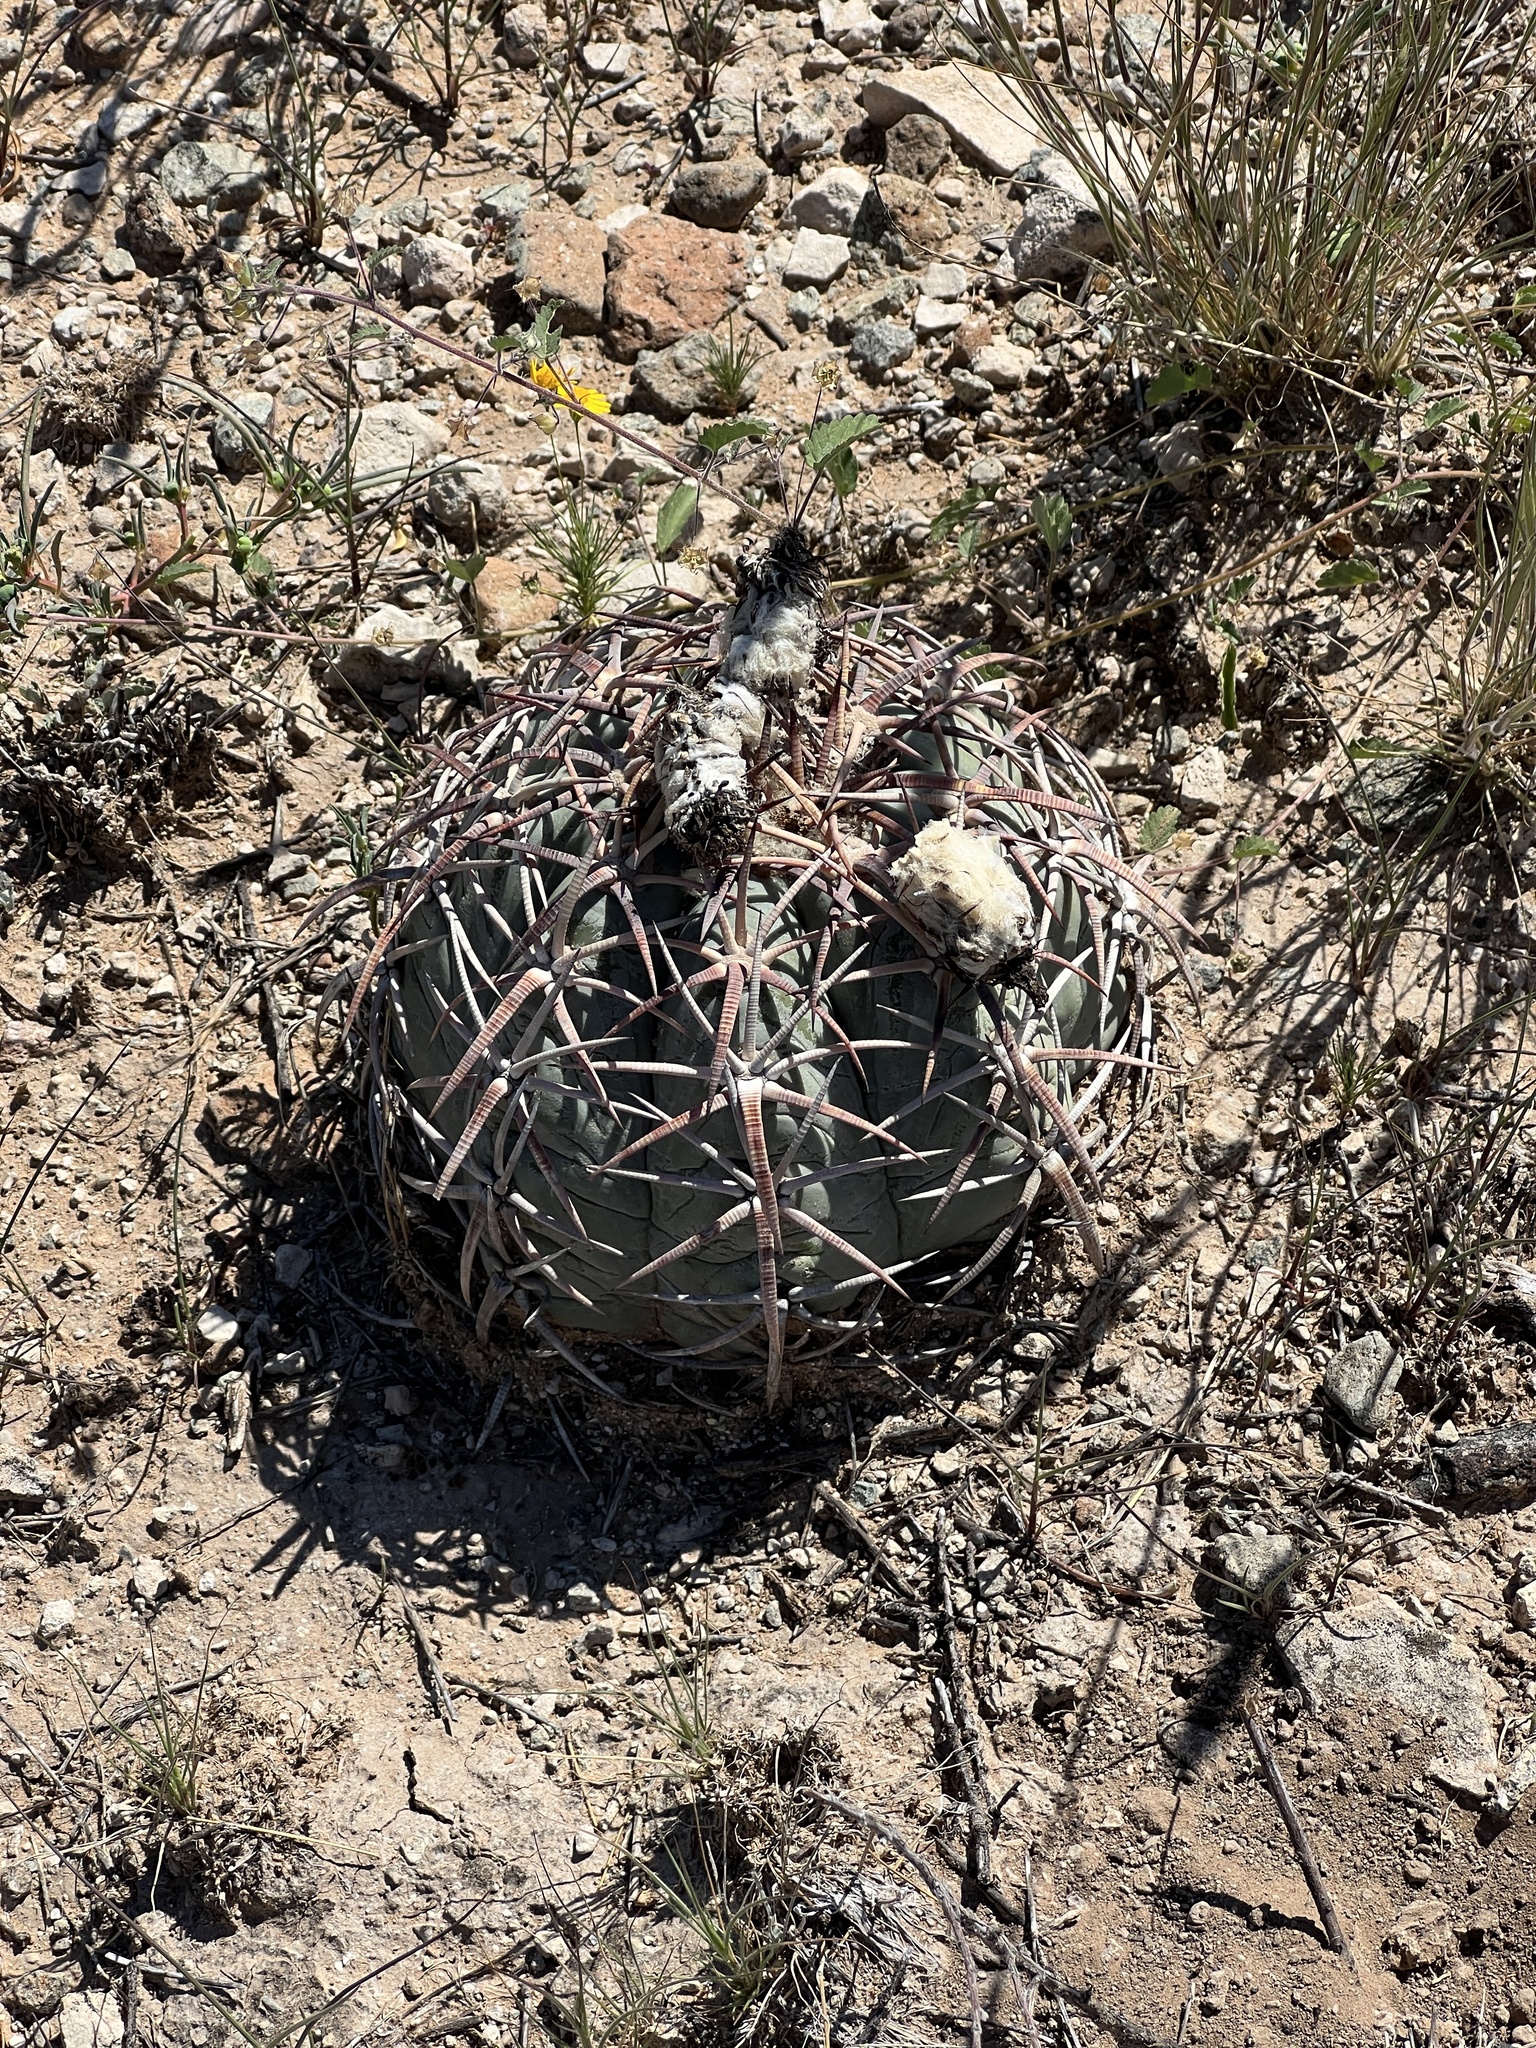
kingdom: Plantae
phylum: Tracheophyta
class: Magnoliopsida
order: Caryophyllales
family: Cactaceae
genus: Echinocactus
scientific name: Echinocactus horizonthalonius
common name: Devilshead
